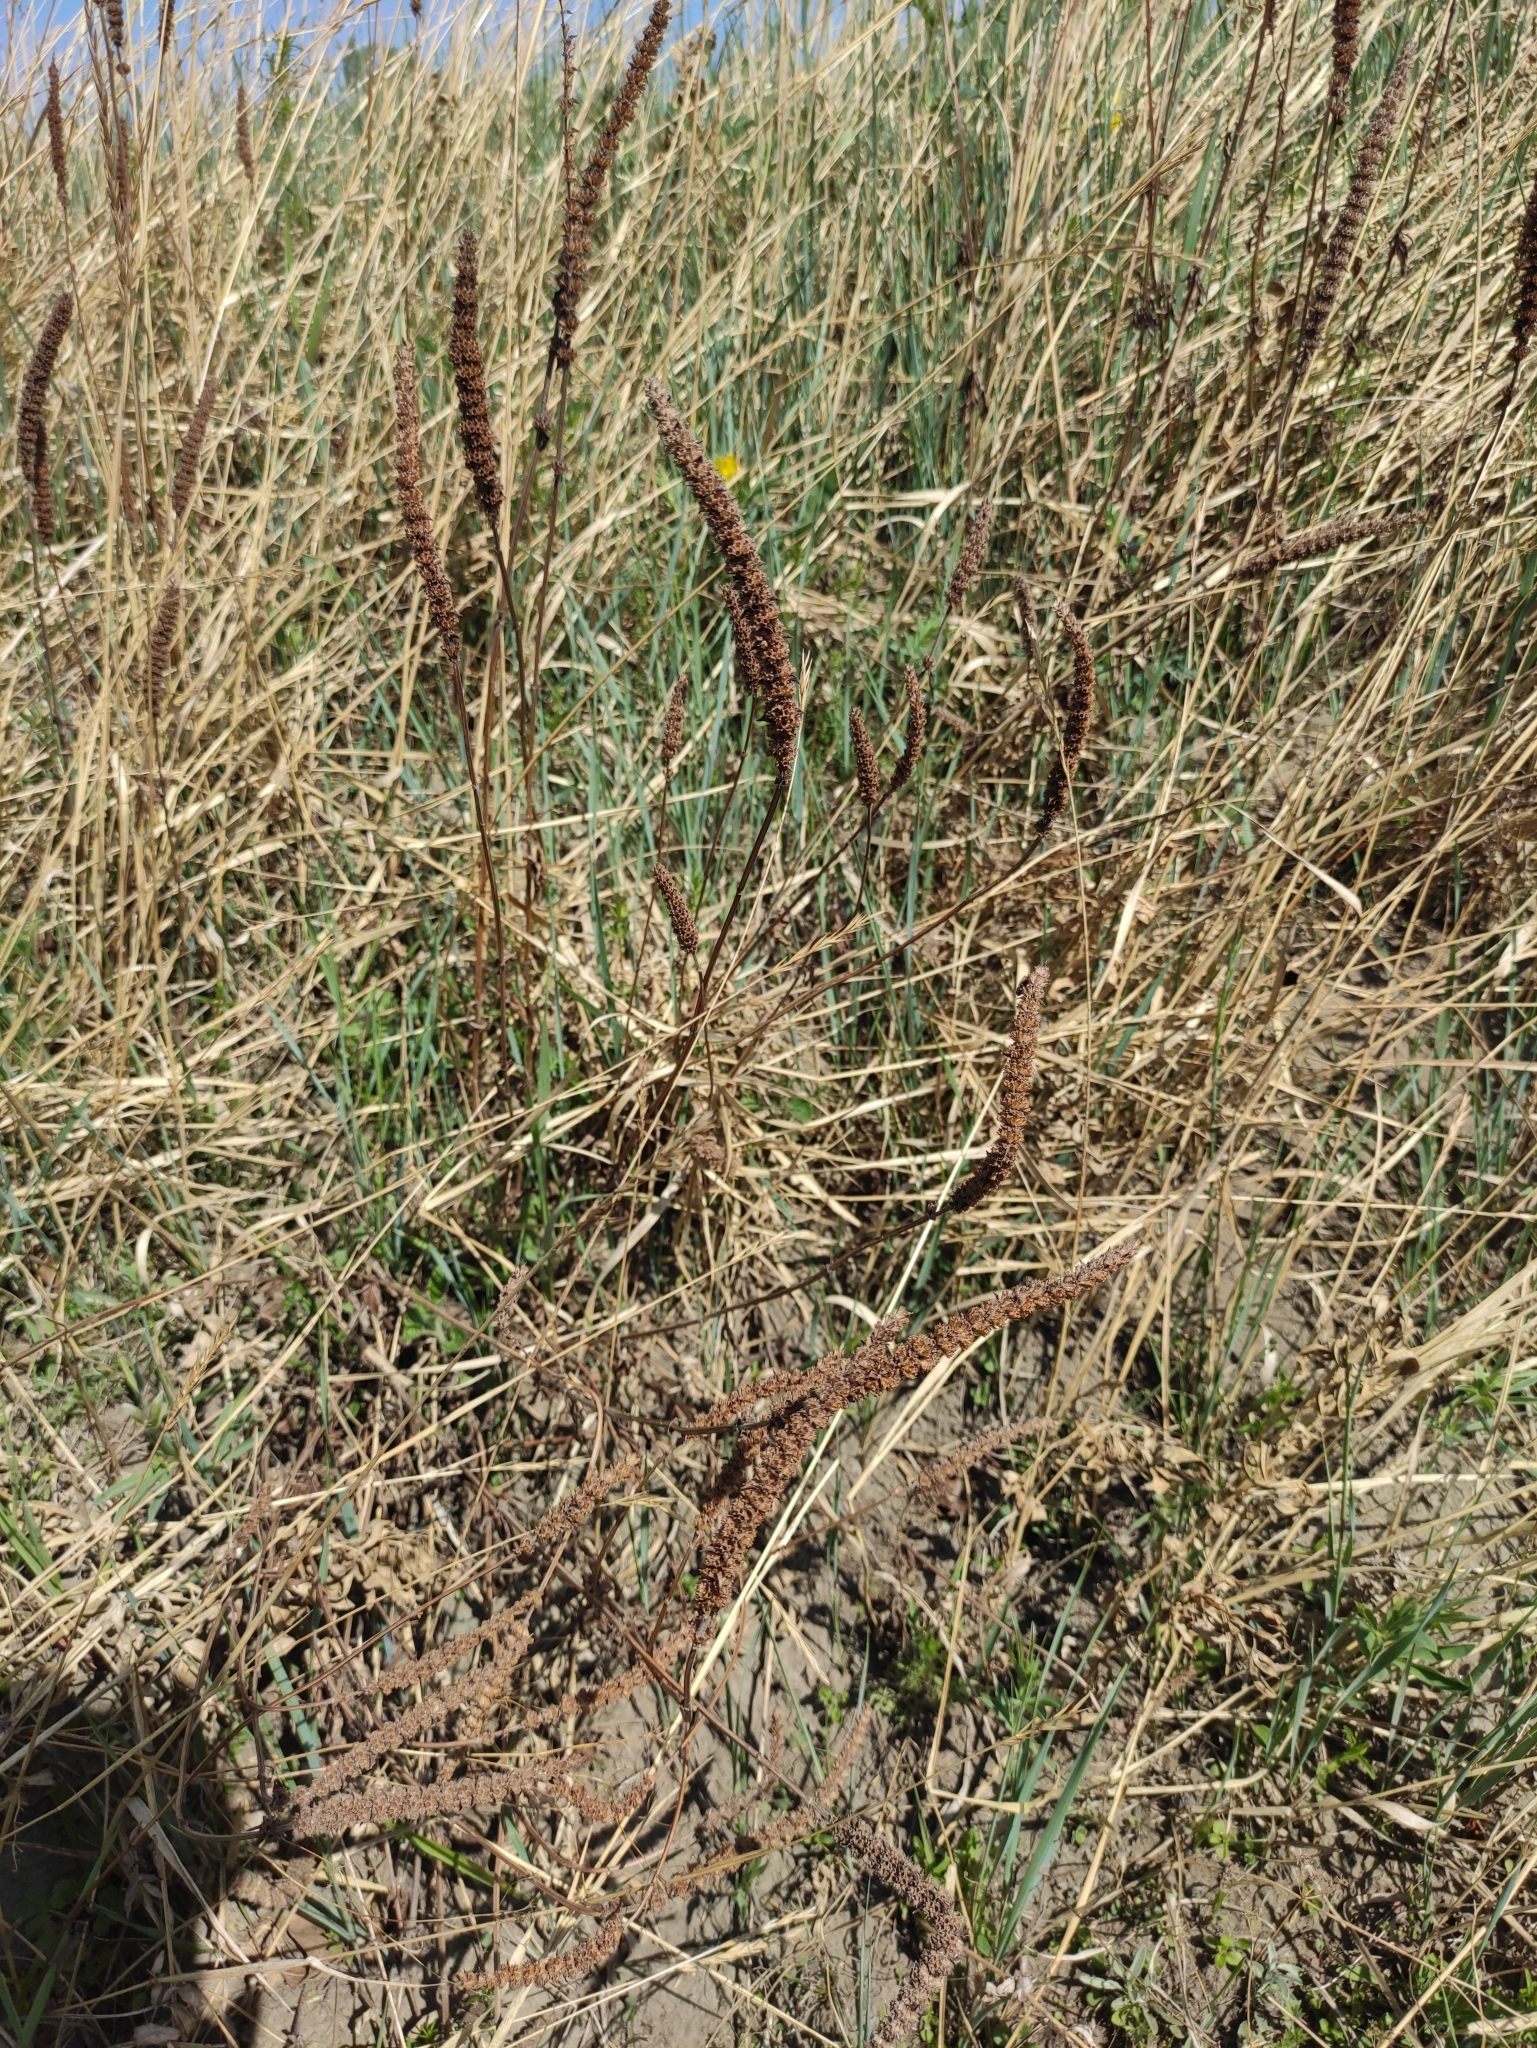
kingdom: Plantae
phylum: Tracheophyta
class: Magnoliopsida
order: Lamiales
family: Lamiaceae
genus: Nepeta
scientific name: Nepeta multifida
